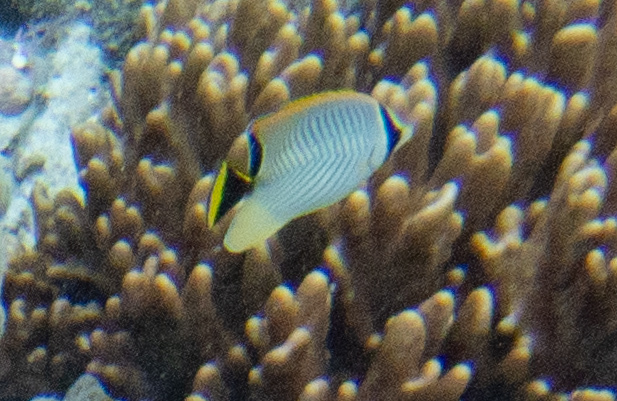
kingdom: Animalia
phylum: Chordata
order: Perciformes
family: Chaetodontidae
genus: Chaetodon
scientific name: Chaetodon trifascialis
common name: Chevroned butterflyfish
